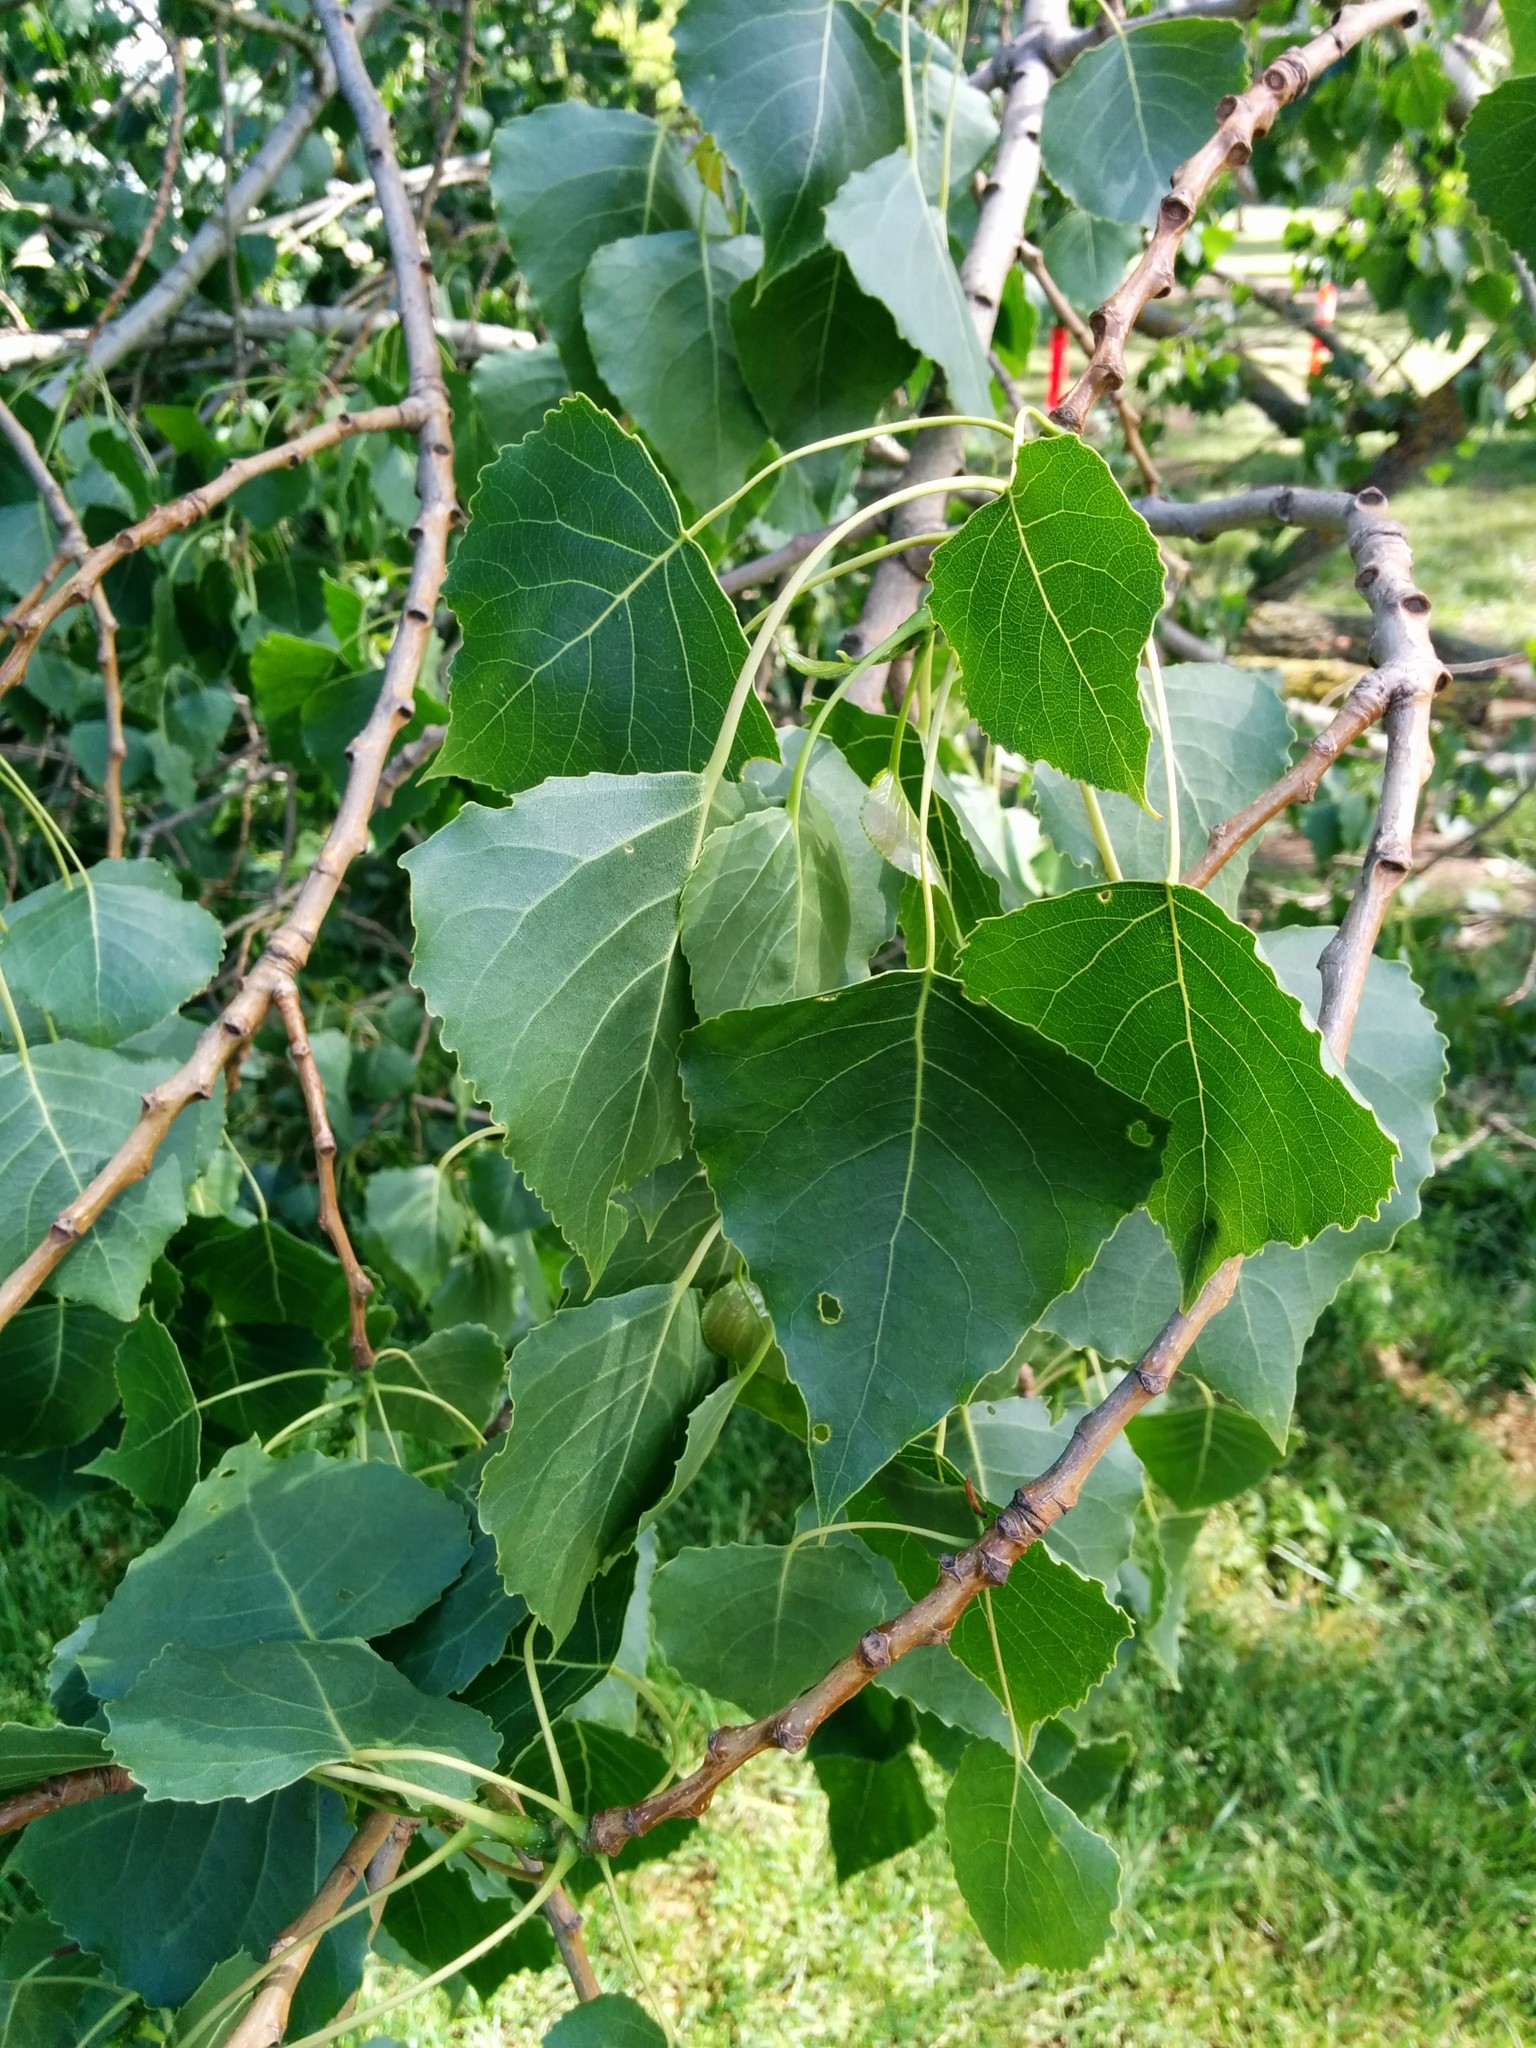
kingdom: Plantae
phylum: Tracheophyta
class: Magnoliopsida
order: Malpighiales
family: Salicaceae
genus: Populus
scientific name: Populus nigra
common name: Black poplar
